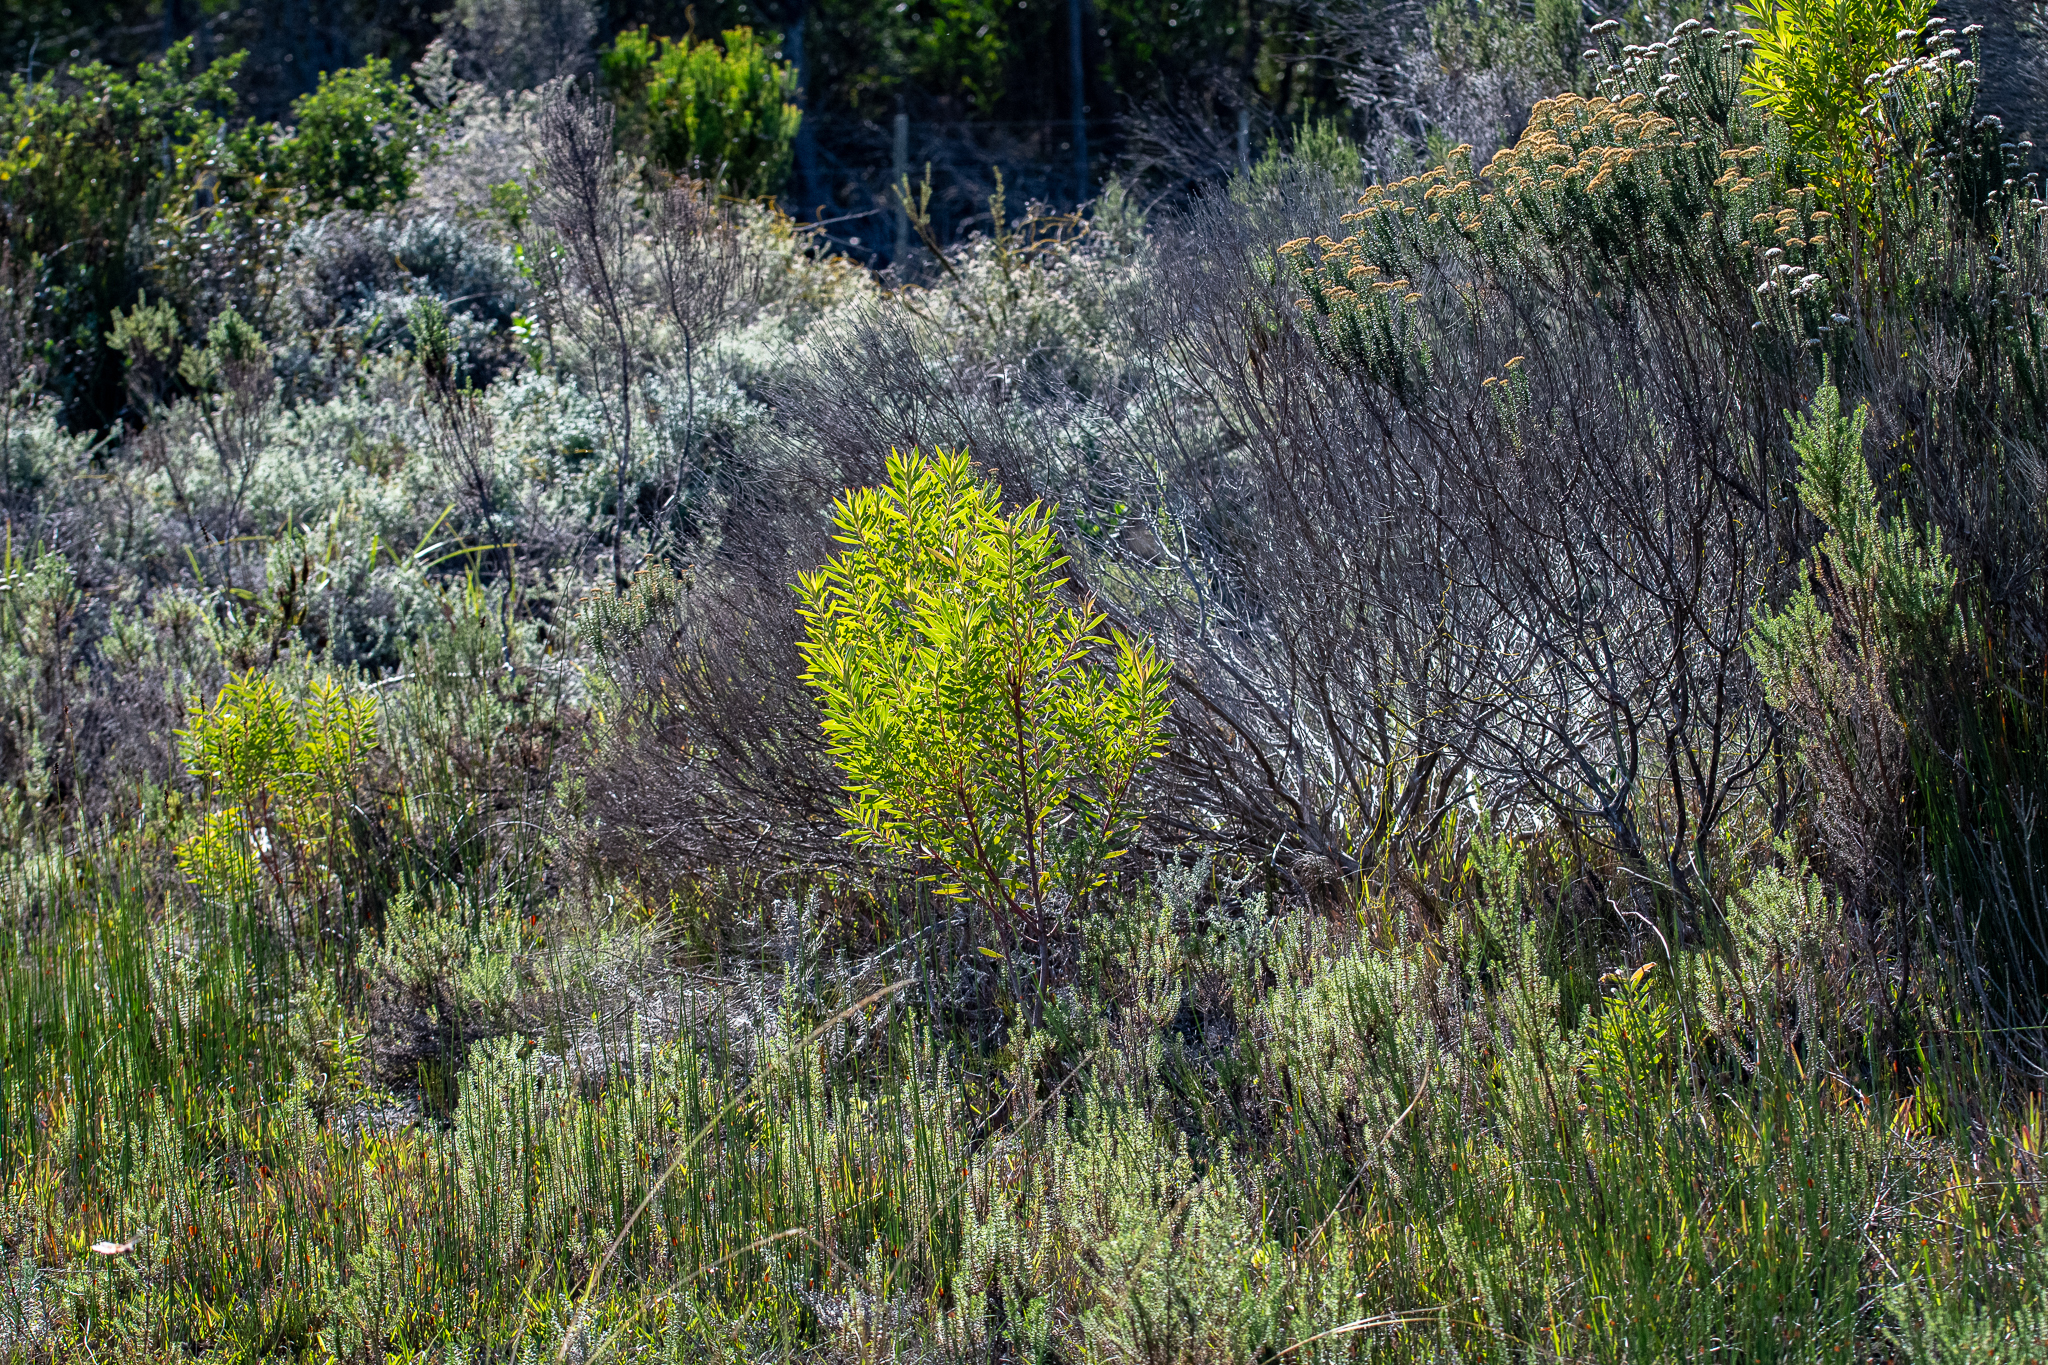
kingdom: Plantae
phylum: Tracheophyta
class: Magnoliopsida
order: Proteales
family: Proteaceae
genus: Leucadendron
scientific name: Leucadendron coniferum
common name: Dune conebush
